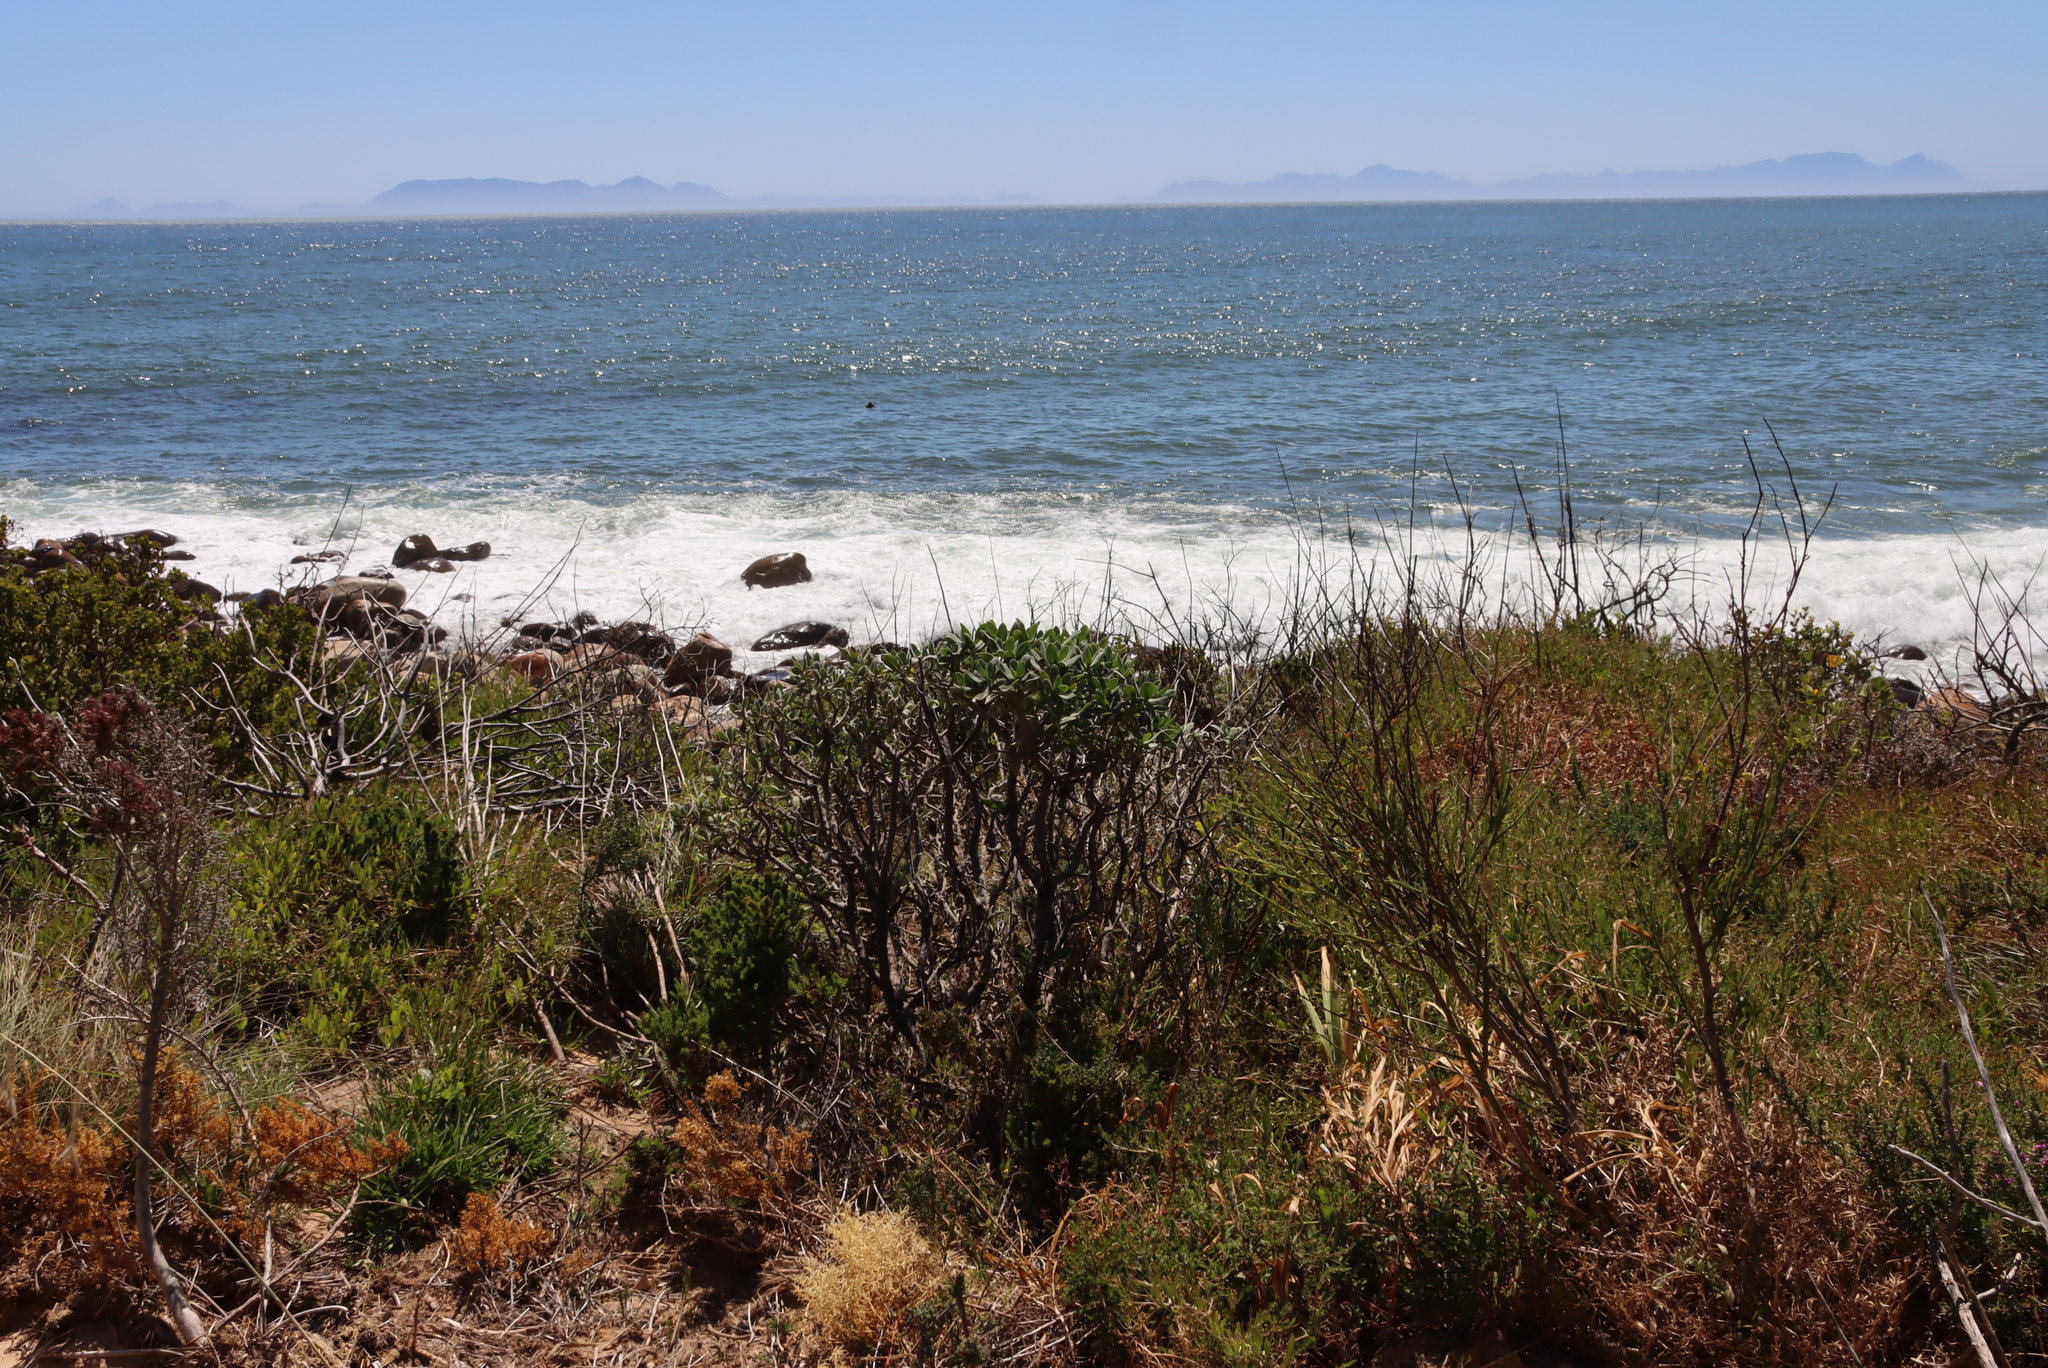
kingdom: Plantae
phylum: Tracheophyta
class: Magnoliopsida
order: Boraginales
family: Boraginaceae
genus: Lobostemon
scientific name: Lobostemon montanus
